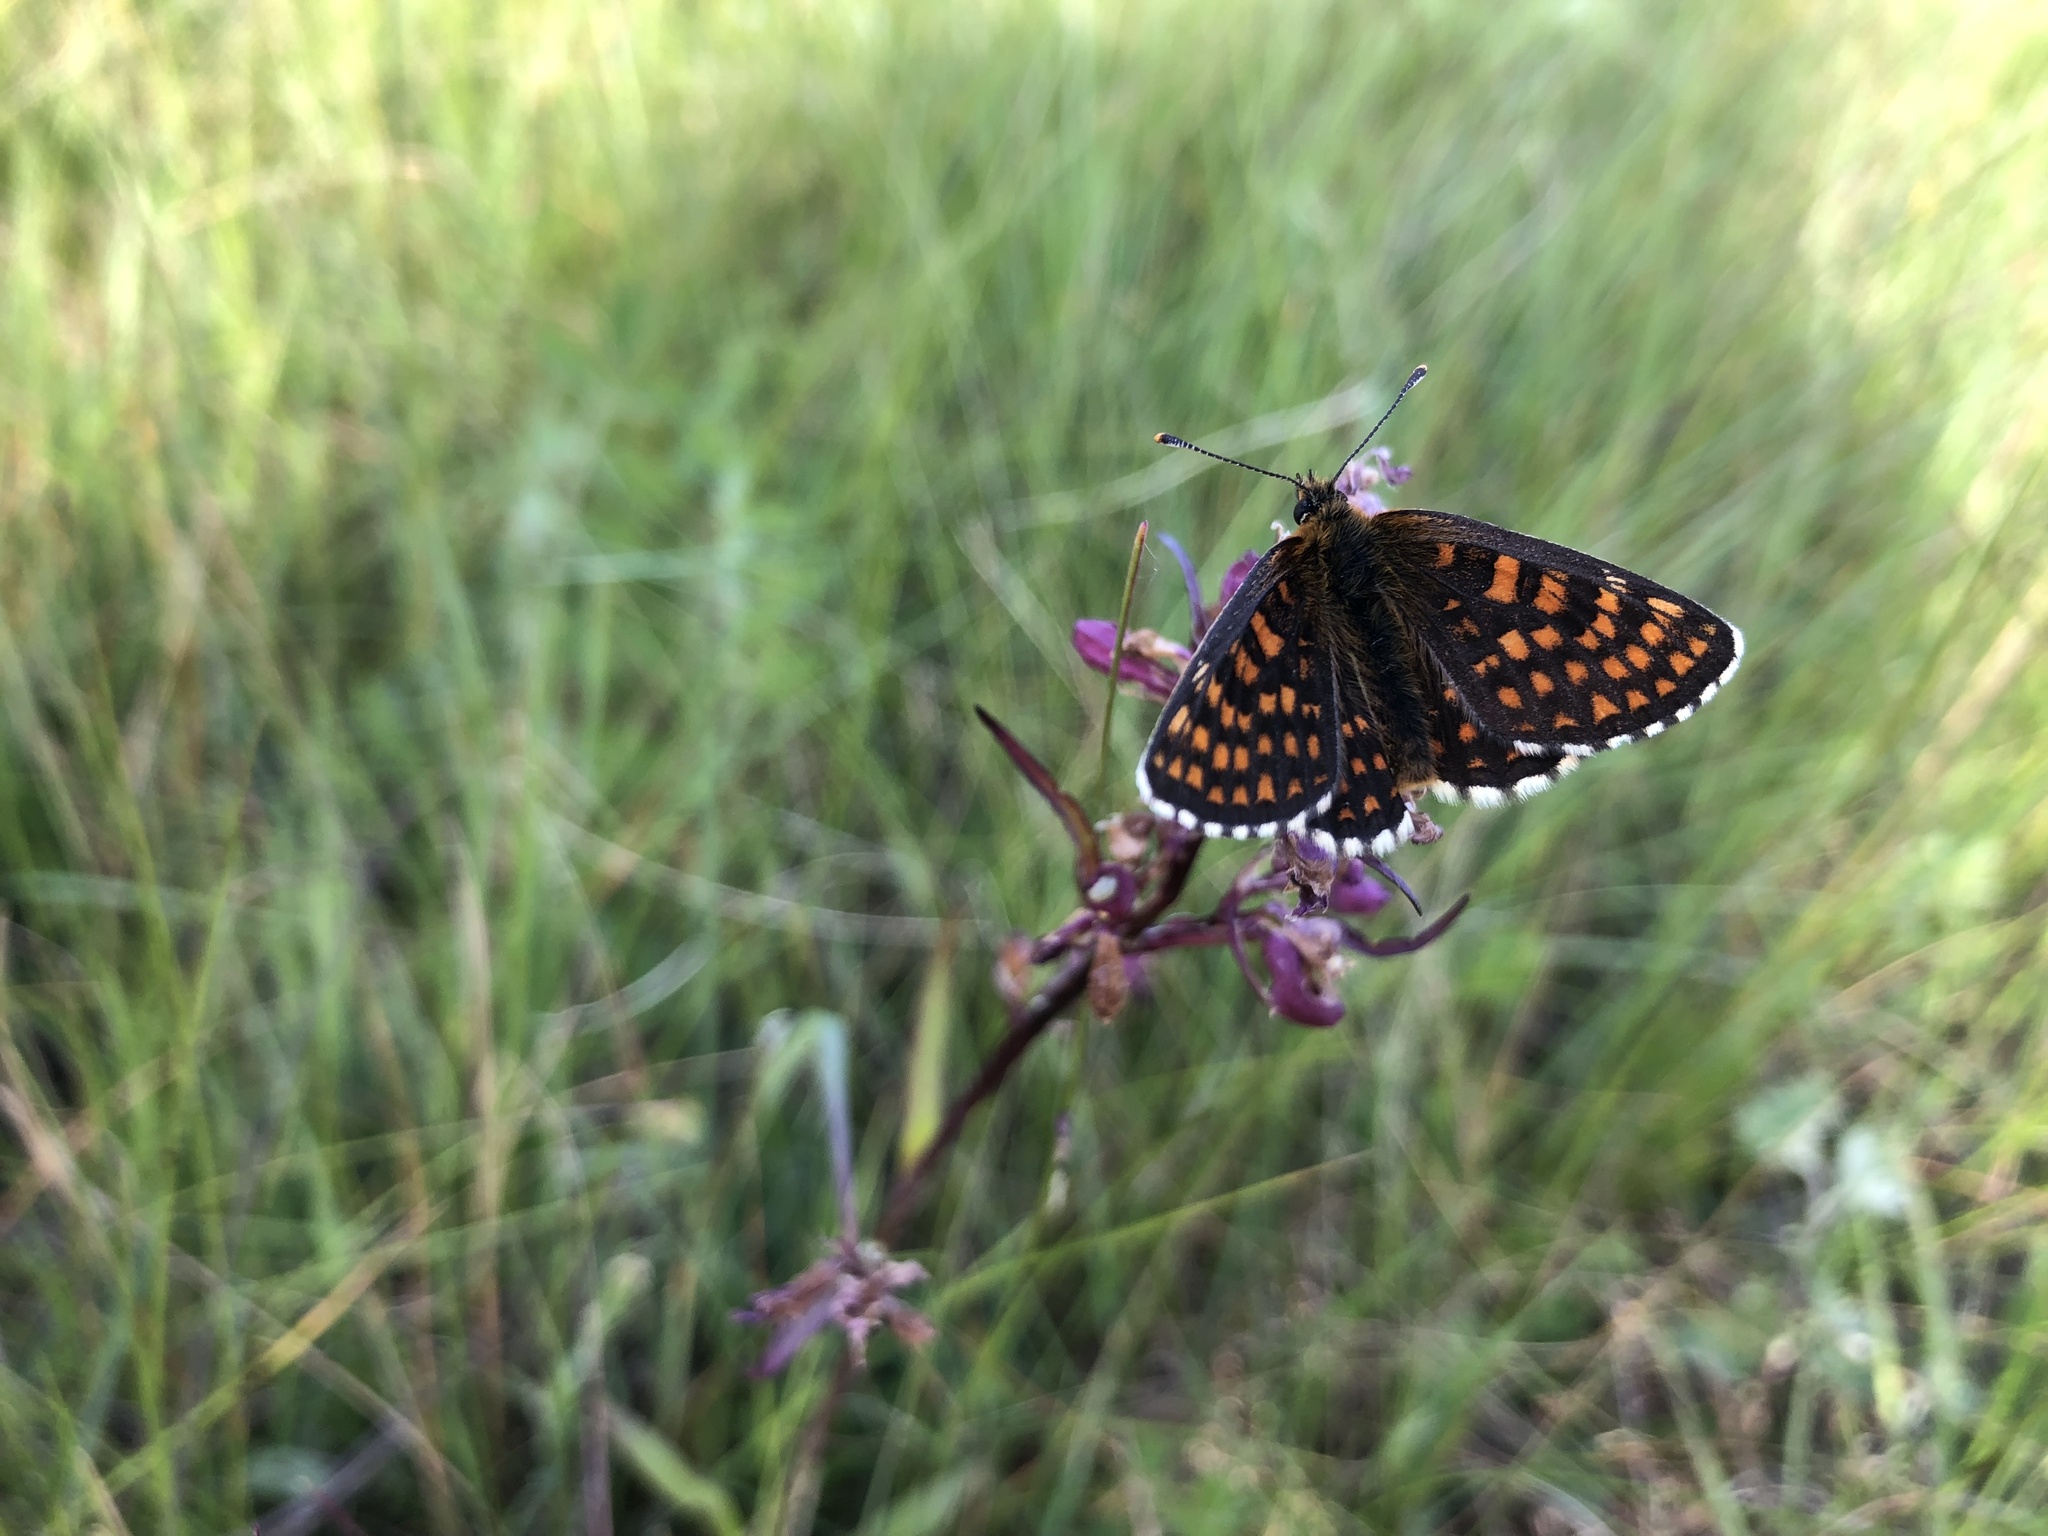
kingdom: Animalia
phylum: Arthropoda
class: Insecta
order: Lepidoptera
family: Nymphalidae
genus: Melitaea
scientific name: Melitaea athalia
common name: Heath fritillary
